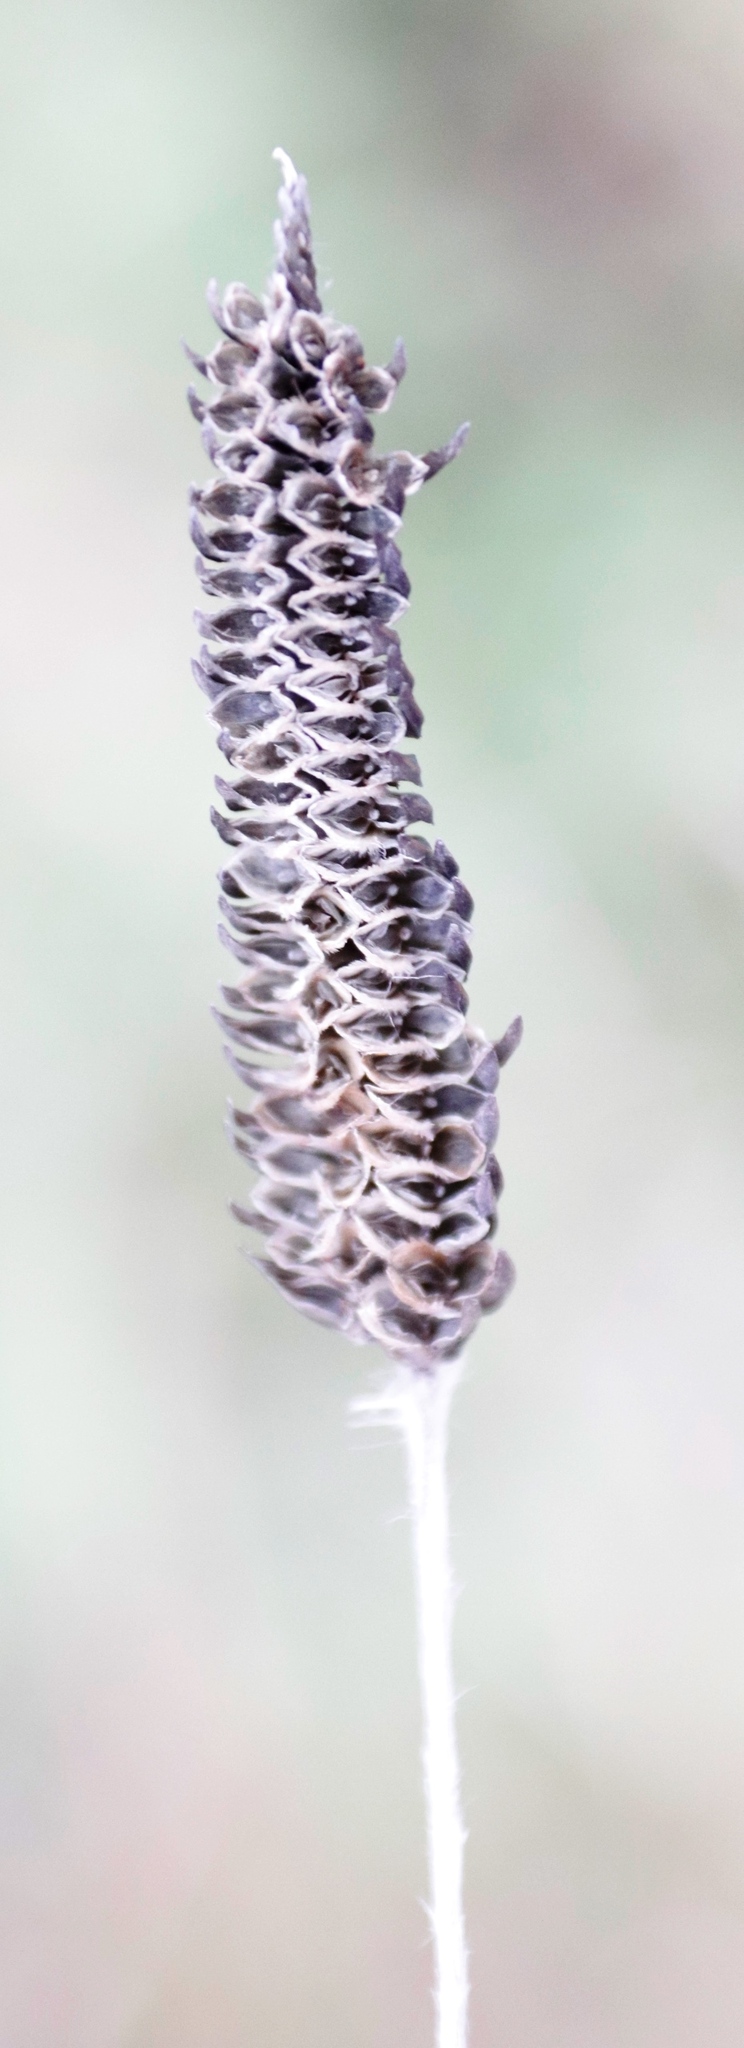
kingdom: Plantae
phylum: Tracheophyta
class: Liliopsida
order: Poales
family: Poaceae
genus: Harpochloa
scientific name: Harpochloa falx
